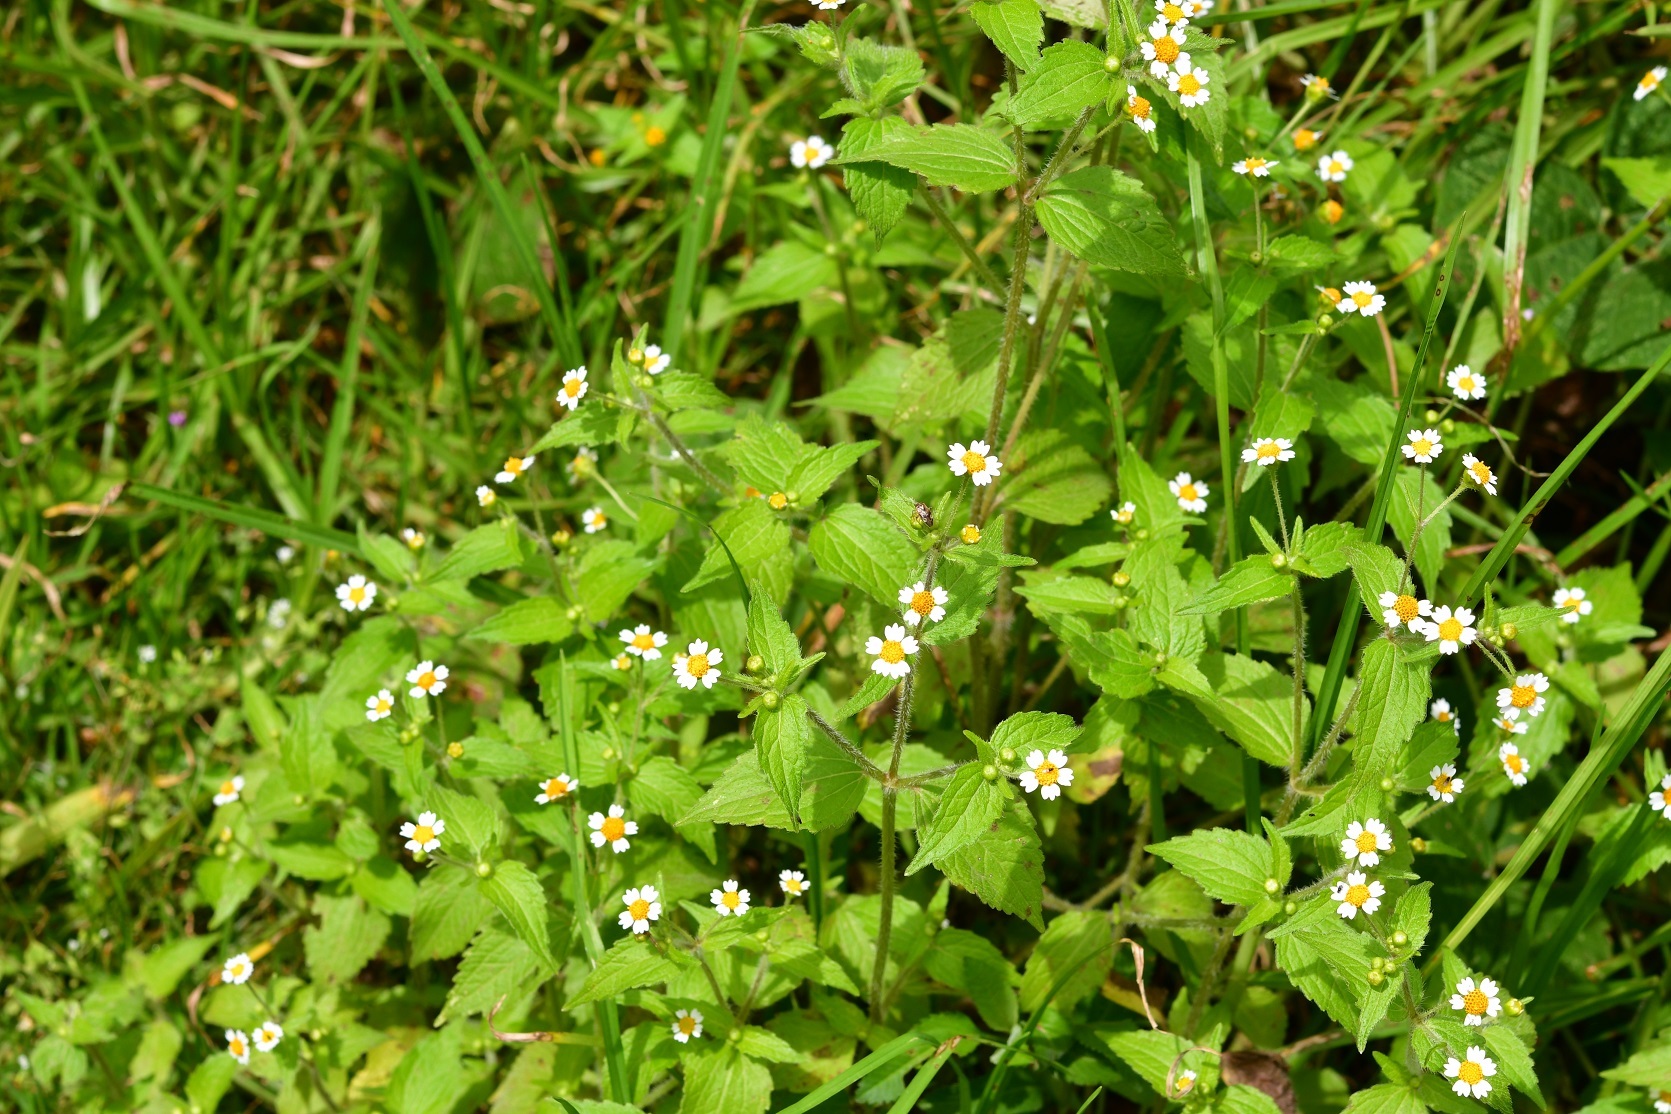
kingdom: Plantae
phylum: Tracheophyta
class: Magnoliopsida
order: Asterales
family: Asteraceae
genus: Galinsoga
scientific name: Galinsoga quadriradiata
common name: Shaggy soldier
